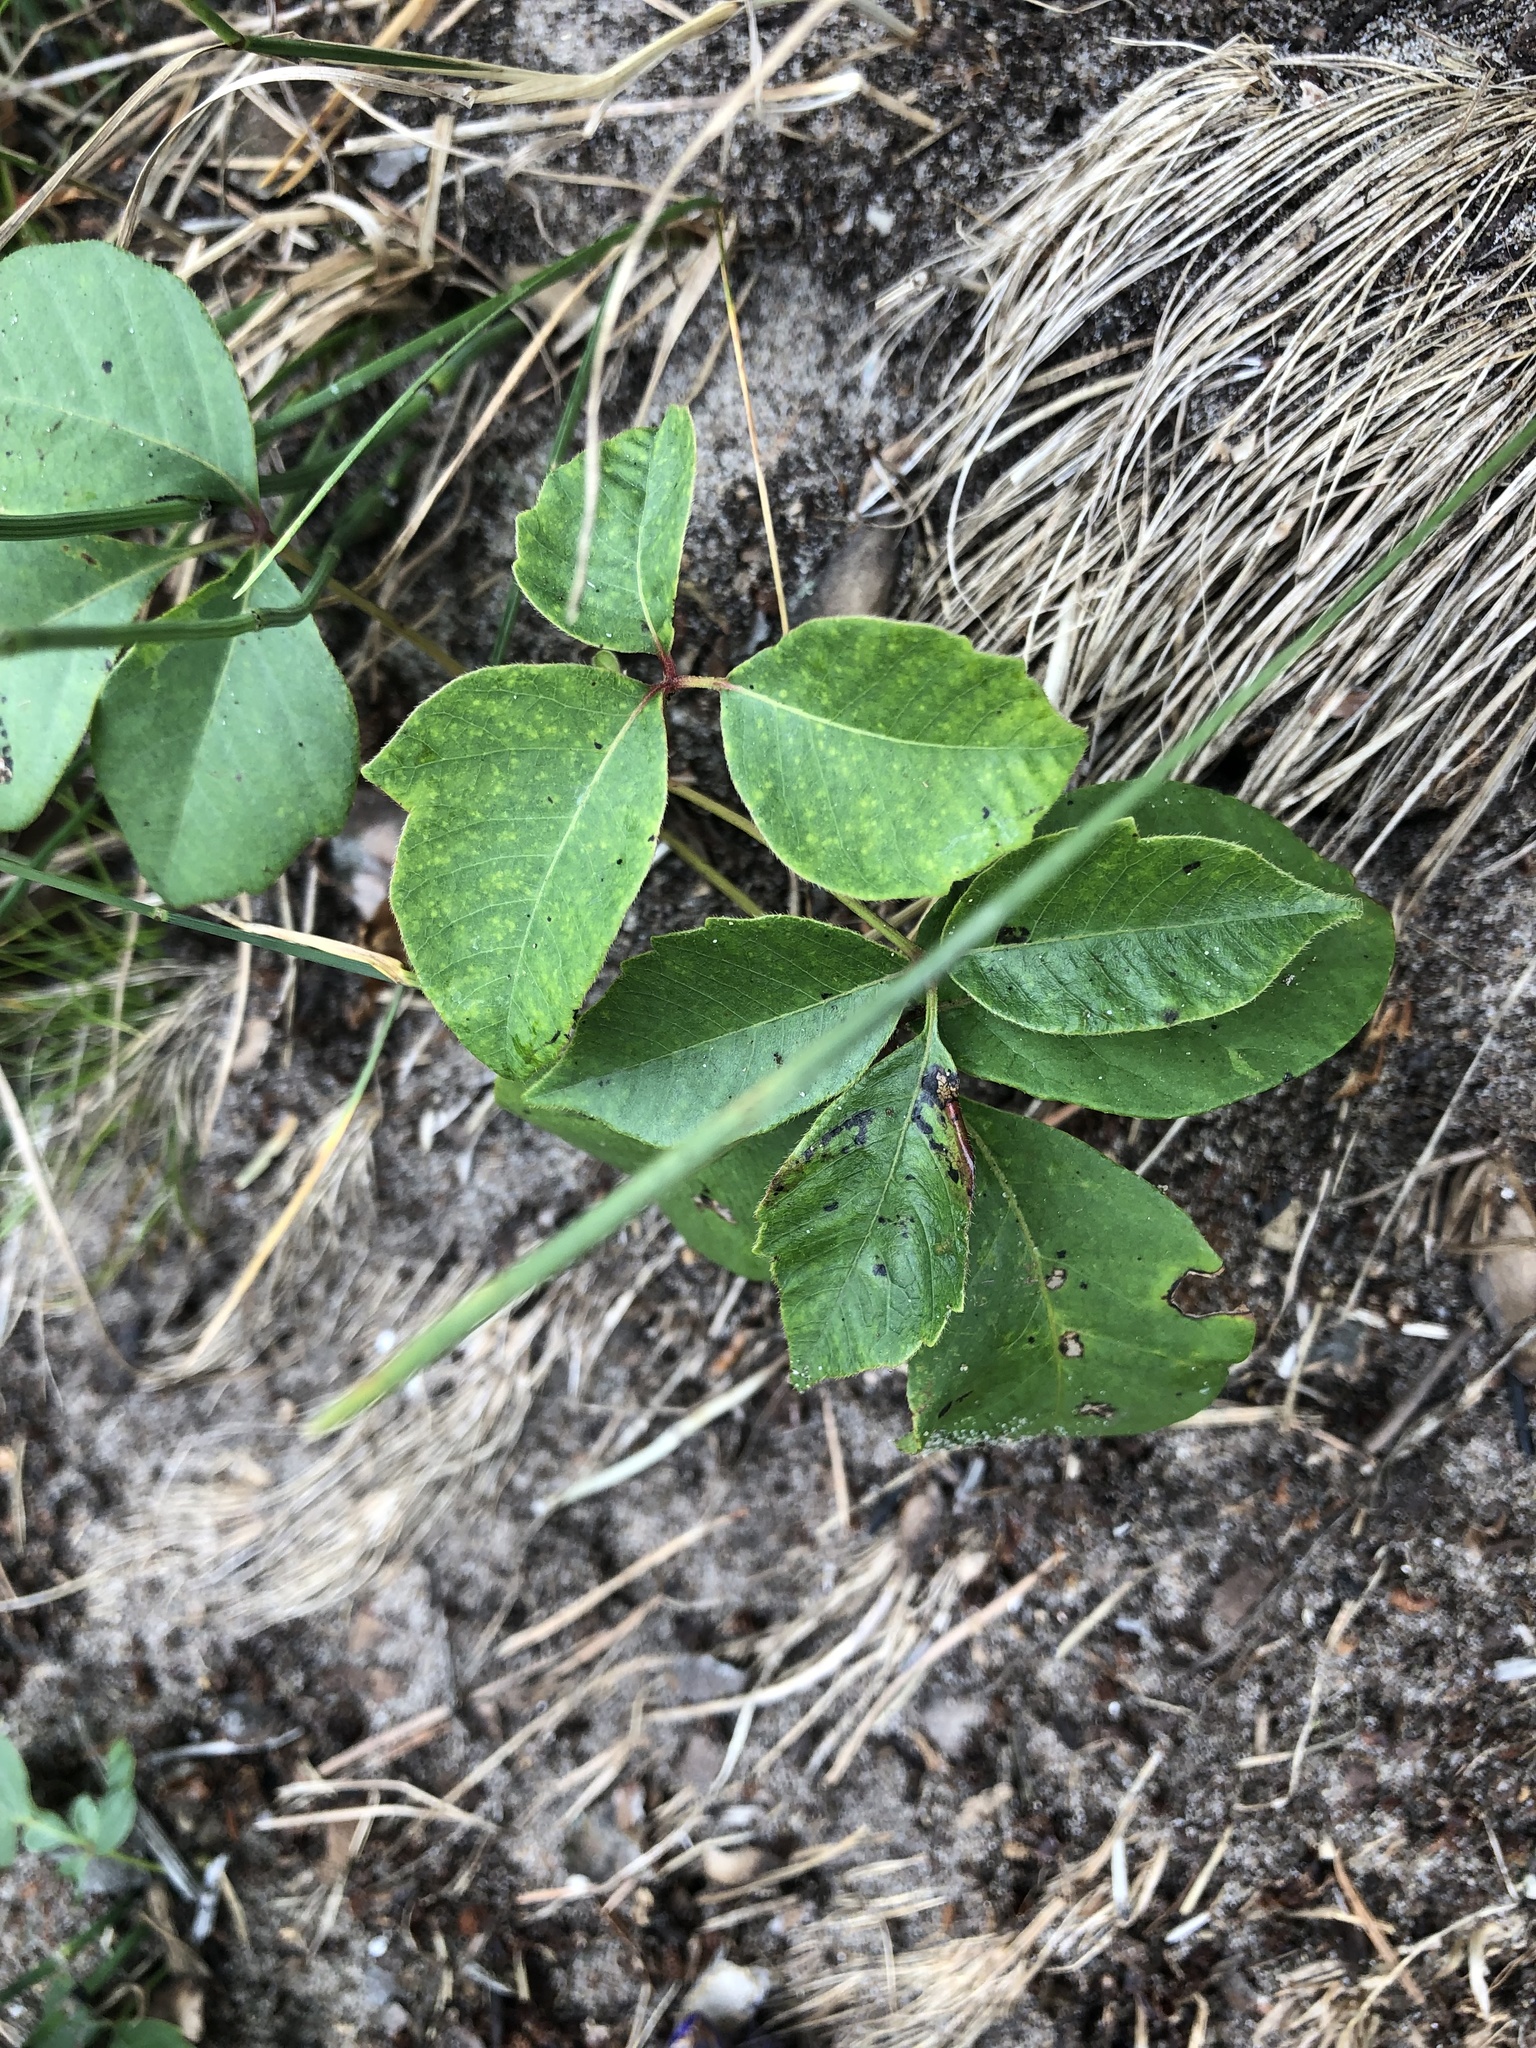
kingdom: Plantae
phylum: Tracheophyta
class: Magnoliopsida
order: Sapindales
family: Anacardiaceae
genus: Toxicodendron
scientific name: Toxicodendron rydbergii
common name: Rydberg's poison-ivy
